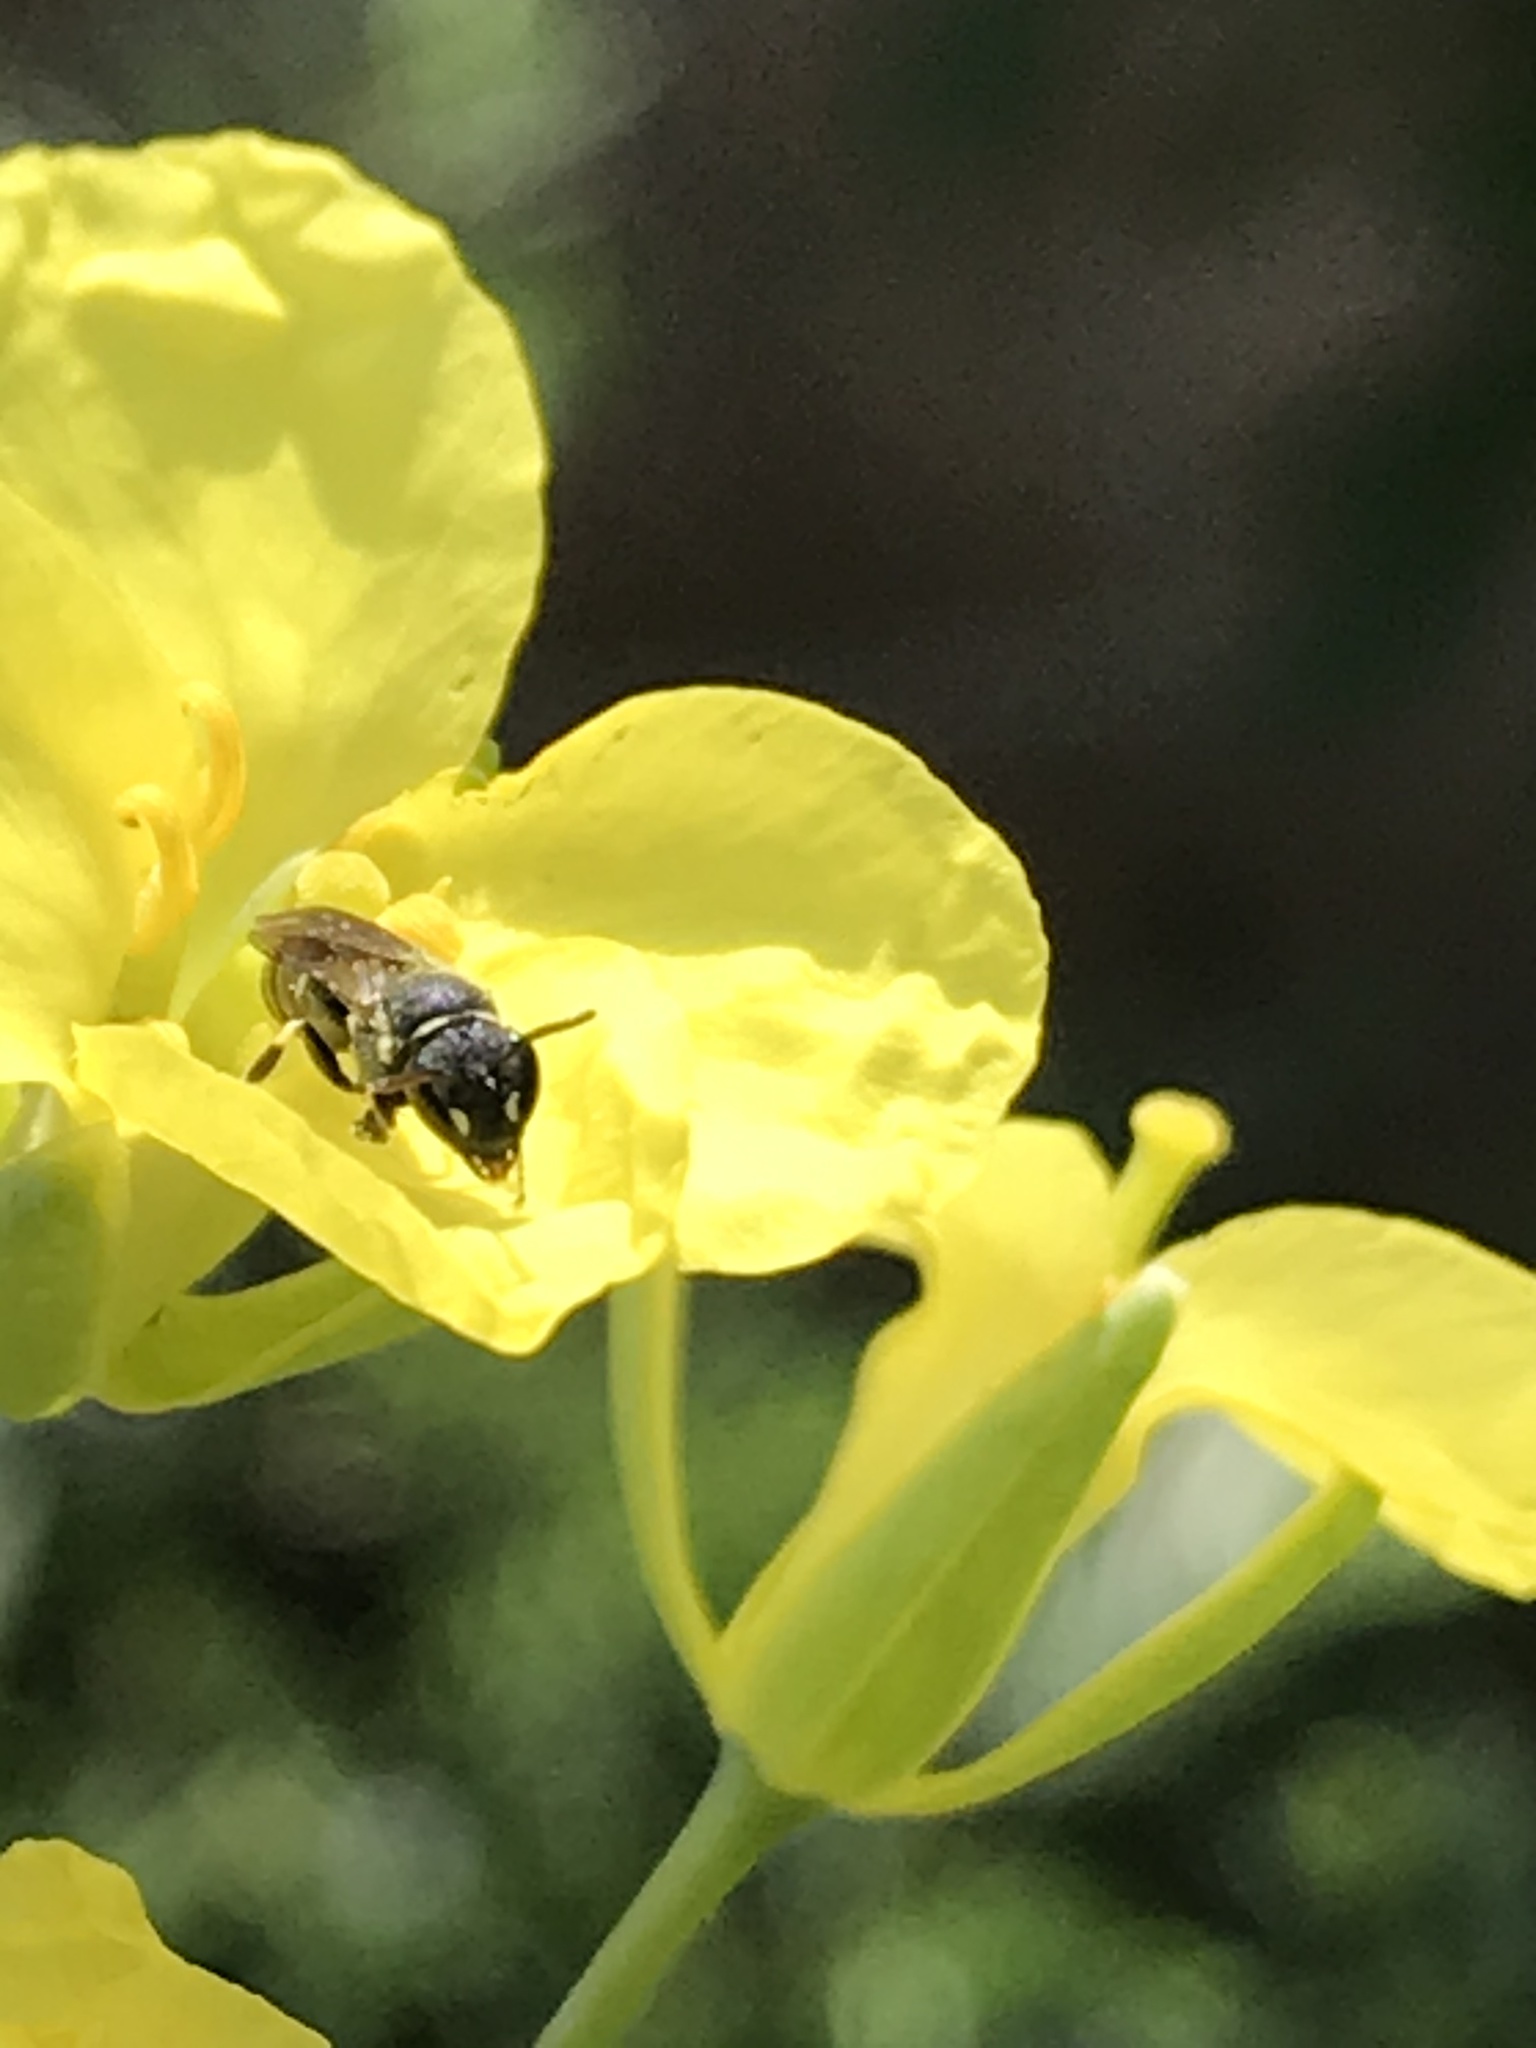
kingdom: Animalia
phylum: Arthropoda
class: Insecta
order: Hymenoptera
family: Colletidae
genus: Hylaeus
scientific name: Hylaeus
